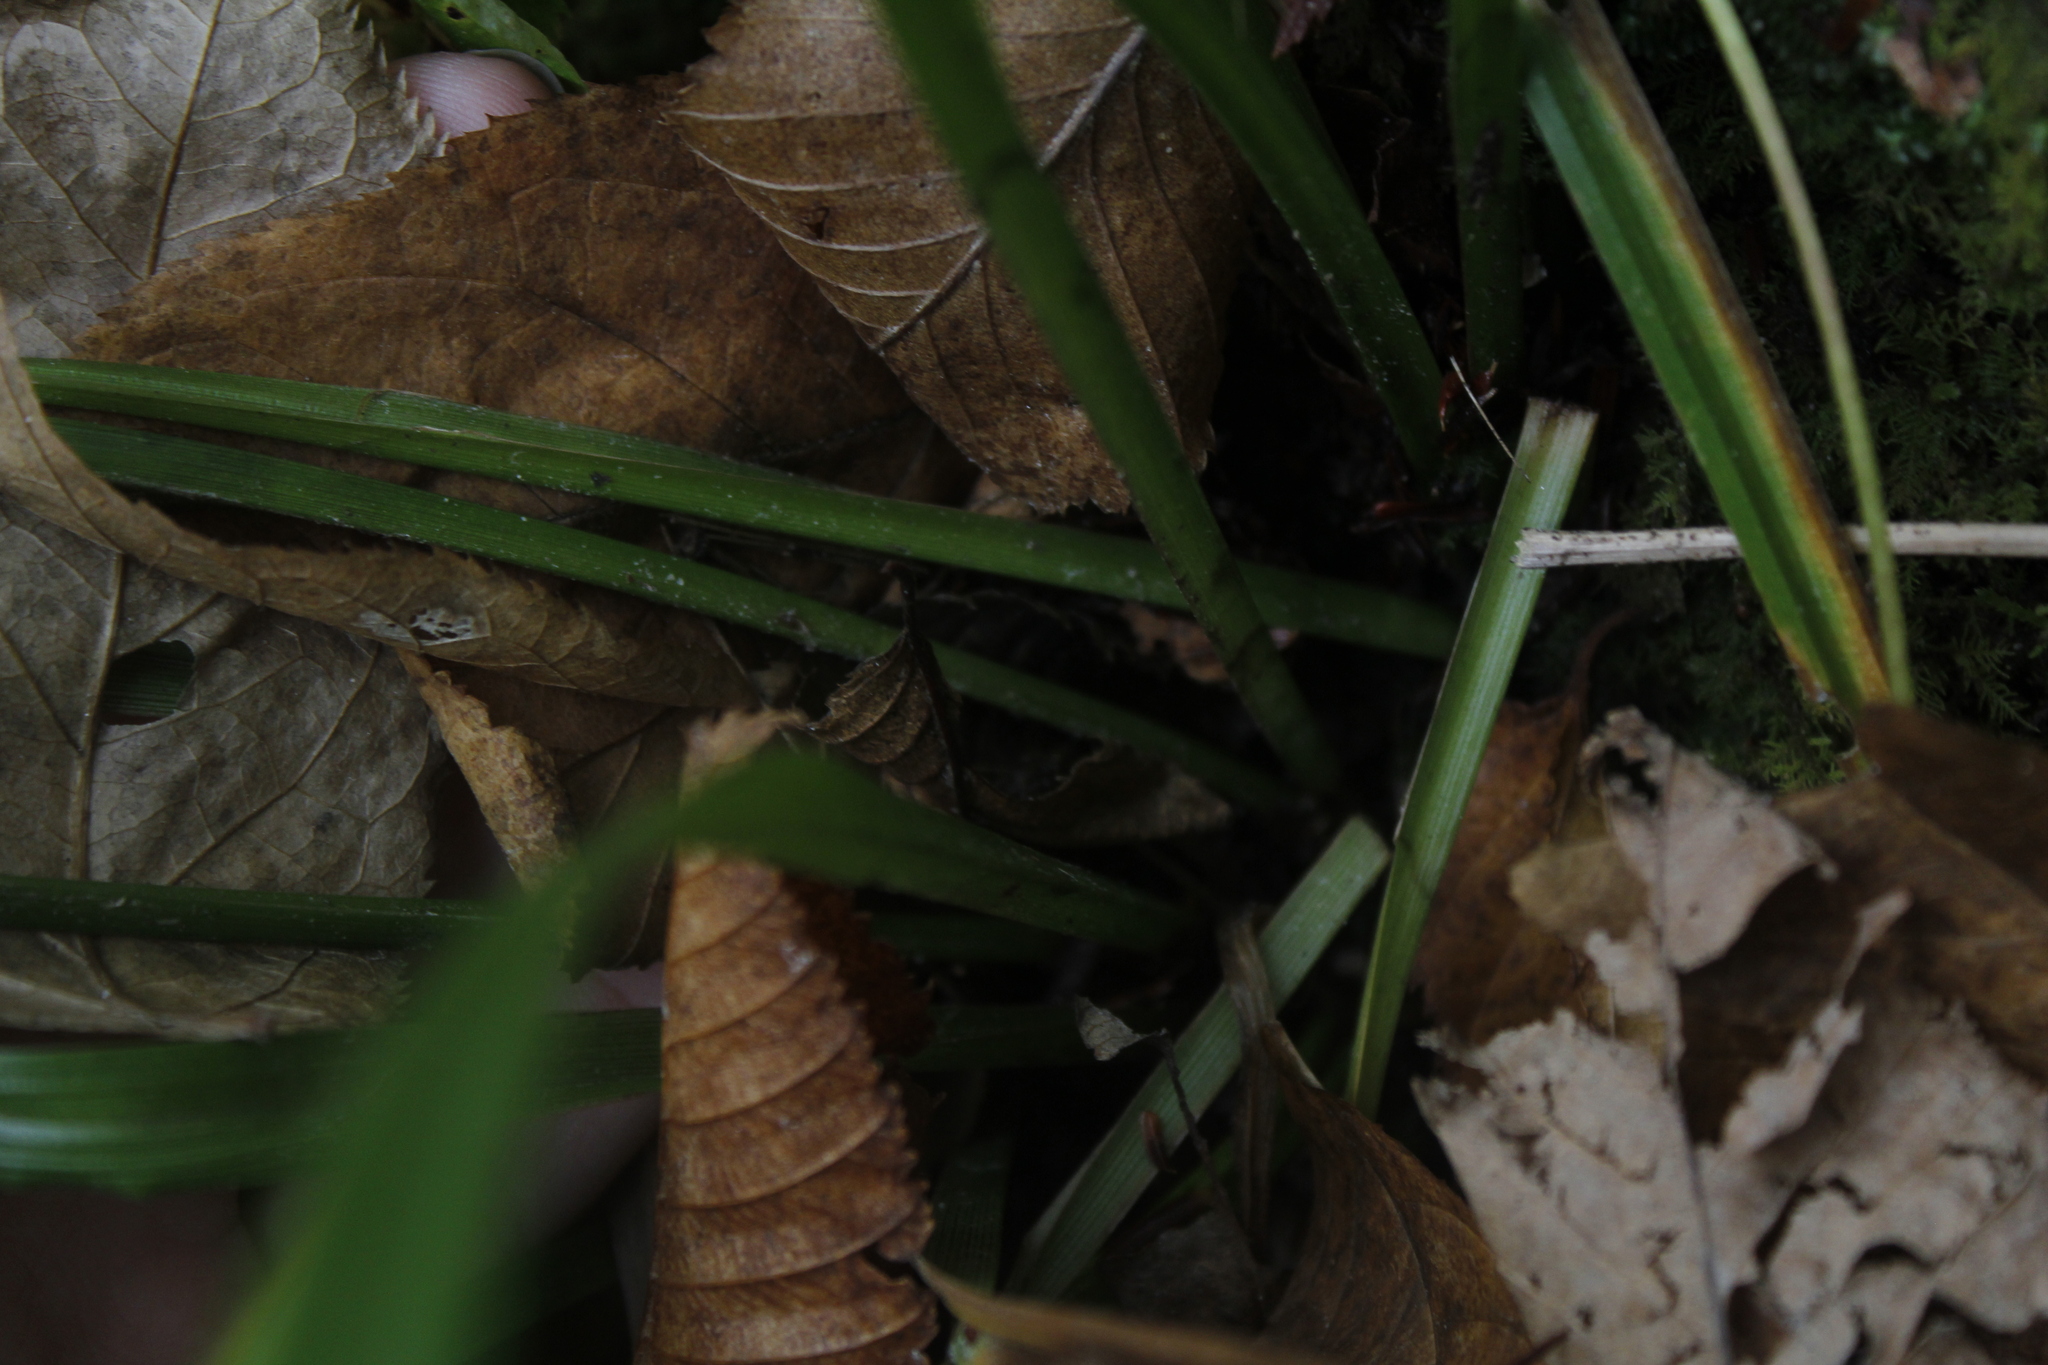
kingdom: Plantae
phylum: Tracheophyta
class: Liliopsida
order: Poales
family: Cyperaceae
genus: Carex
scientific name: Carex scabrata
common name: Eastern rough sedge
